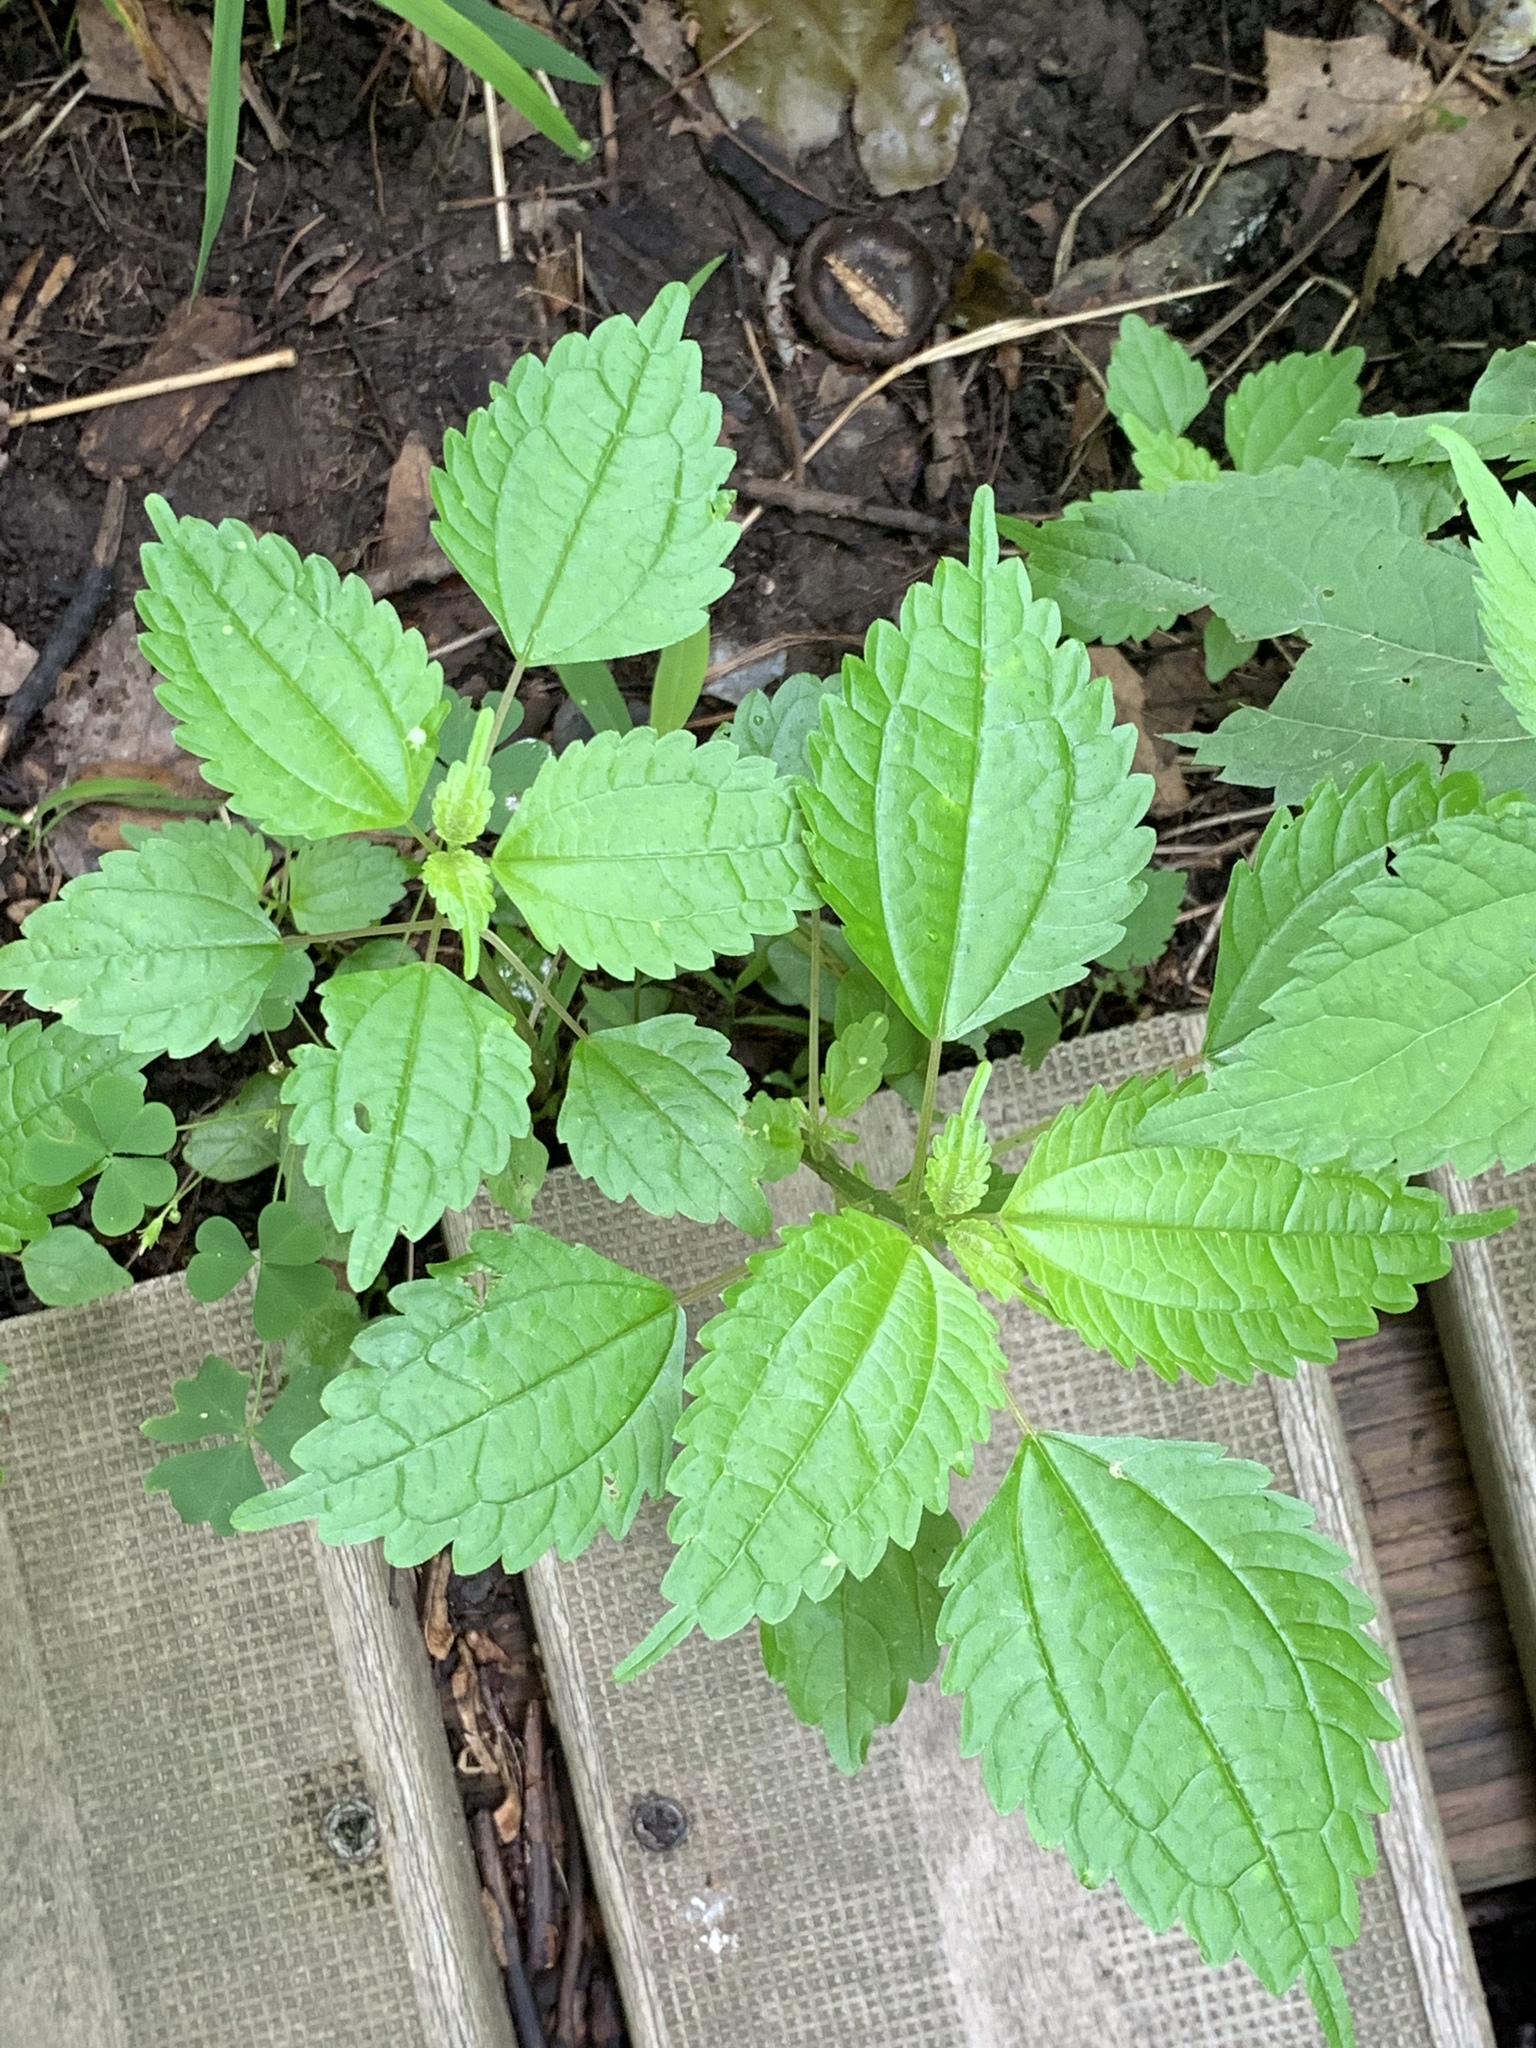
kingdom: Plantae
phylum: Tracheophyta
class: Magnoliopsida
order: Rosales
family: Urticaceae
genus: Pilea
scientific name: Pilea pumila
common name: Clearweed
